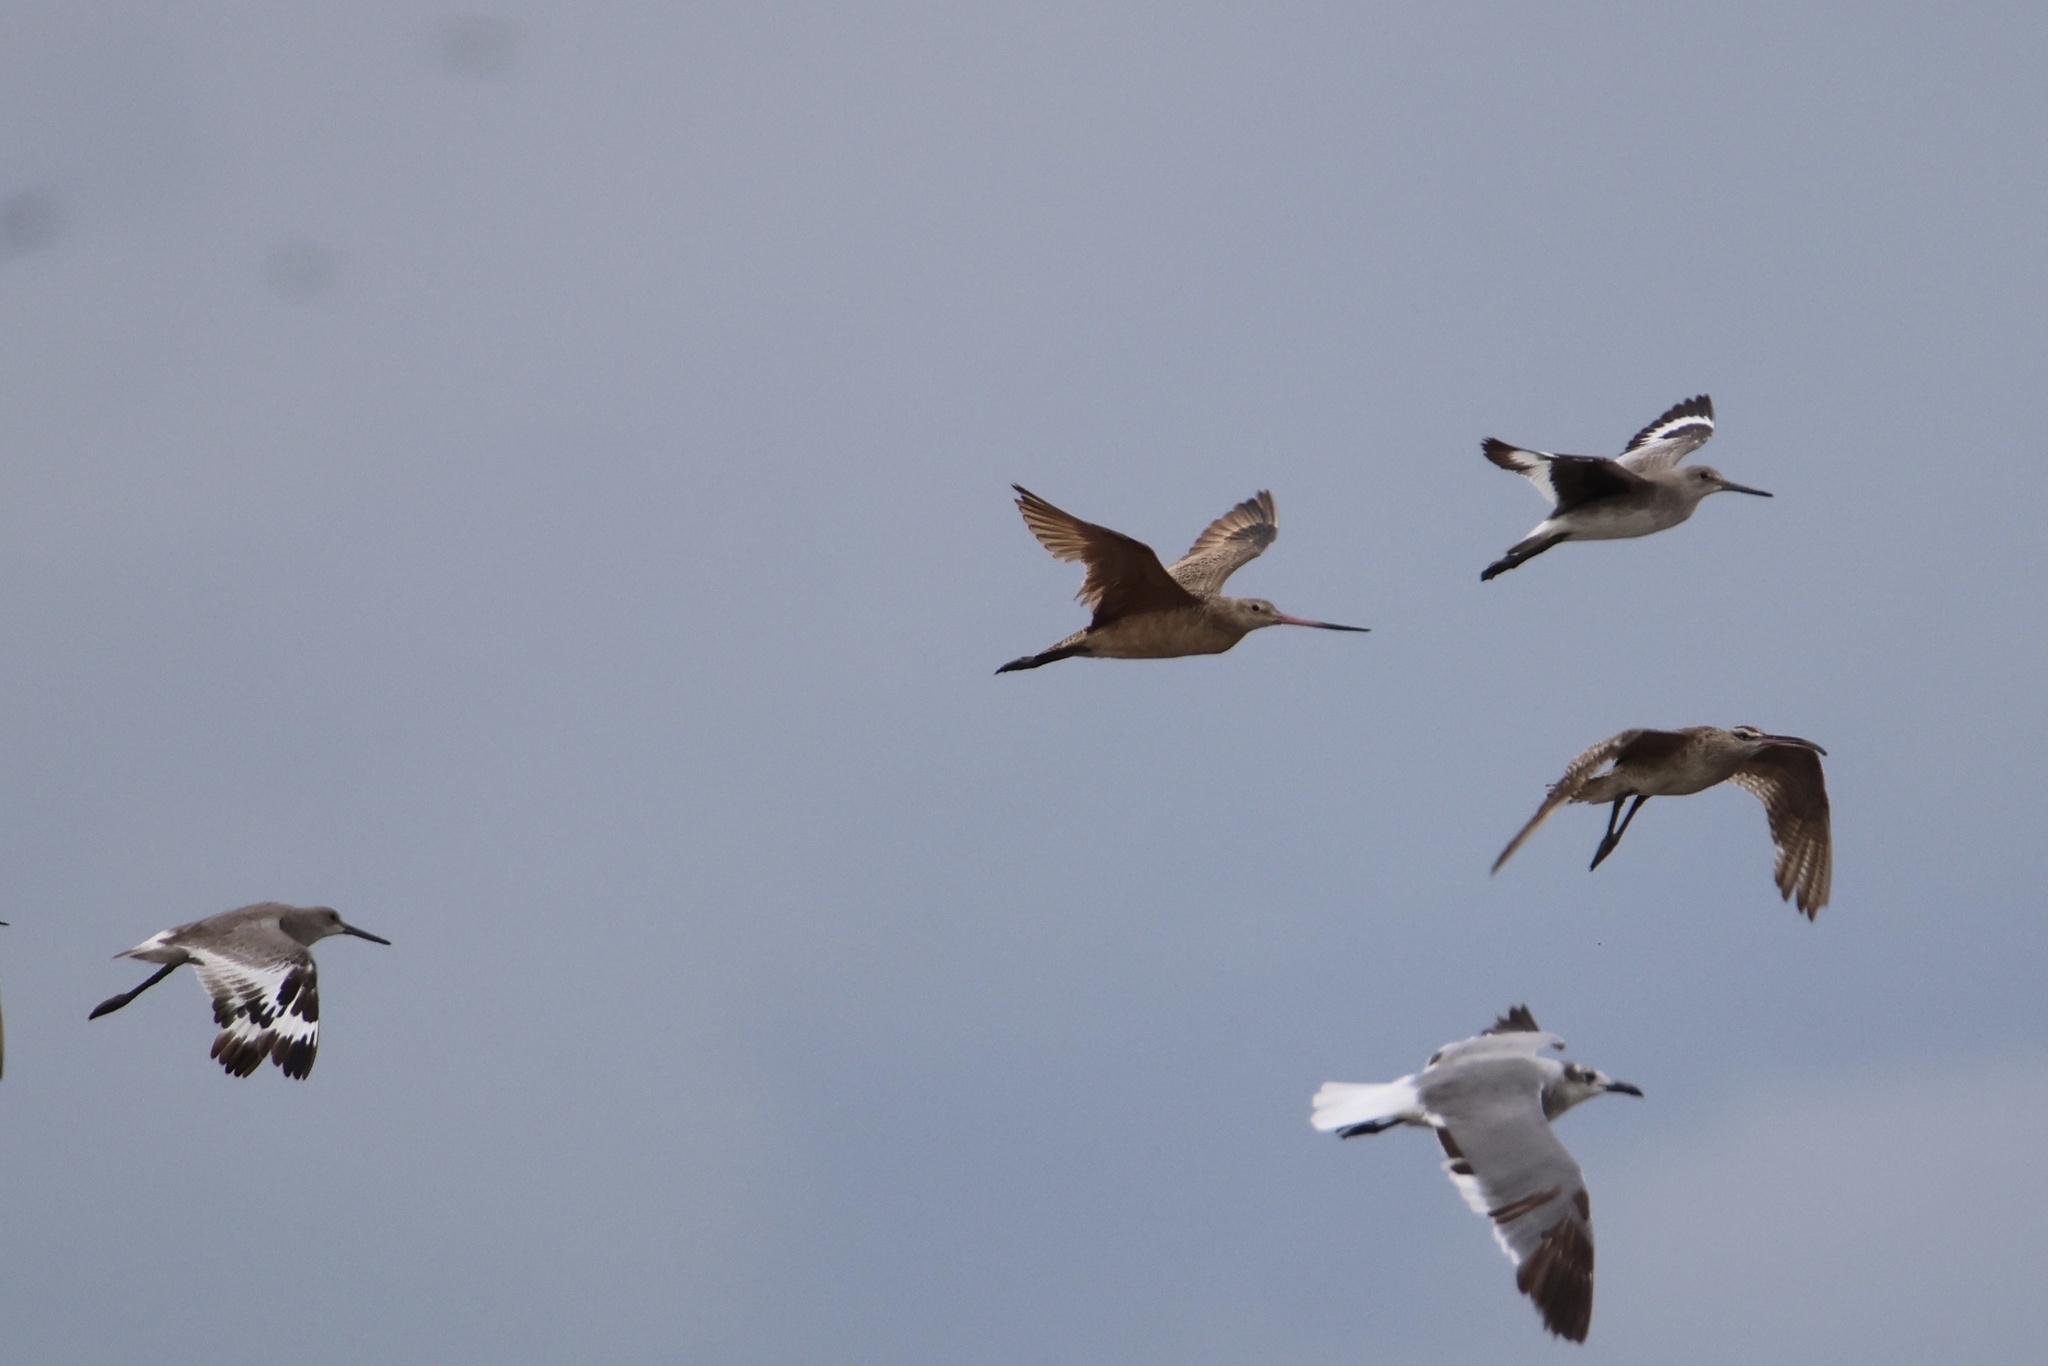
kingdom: Animalia
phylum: Chordata
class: Aves
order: Charadriiformes
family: Scolopacidae
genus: Limosa
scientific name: Limosa fedoa
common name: Marbled godwit
